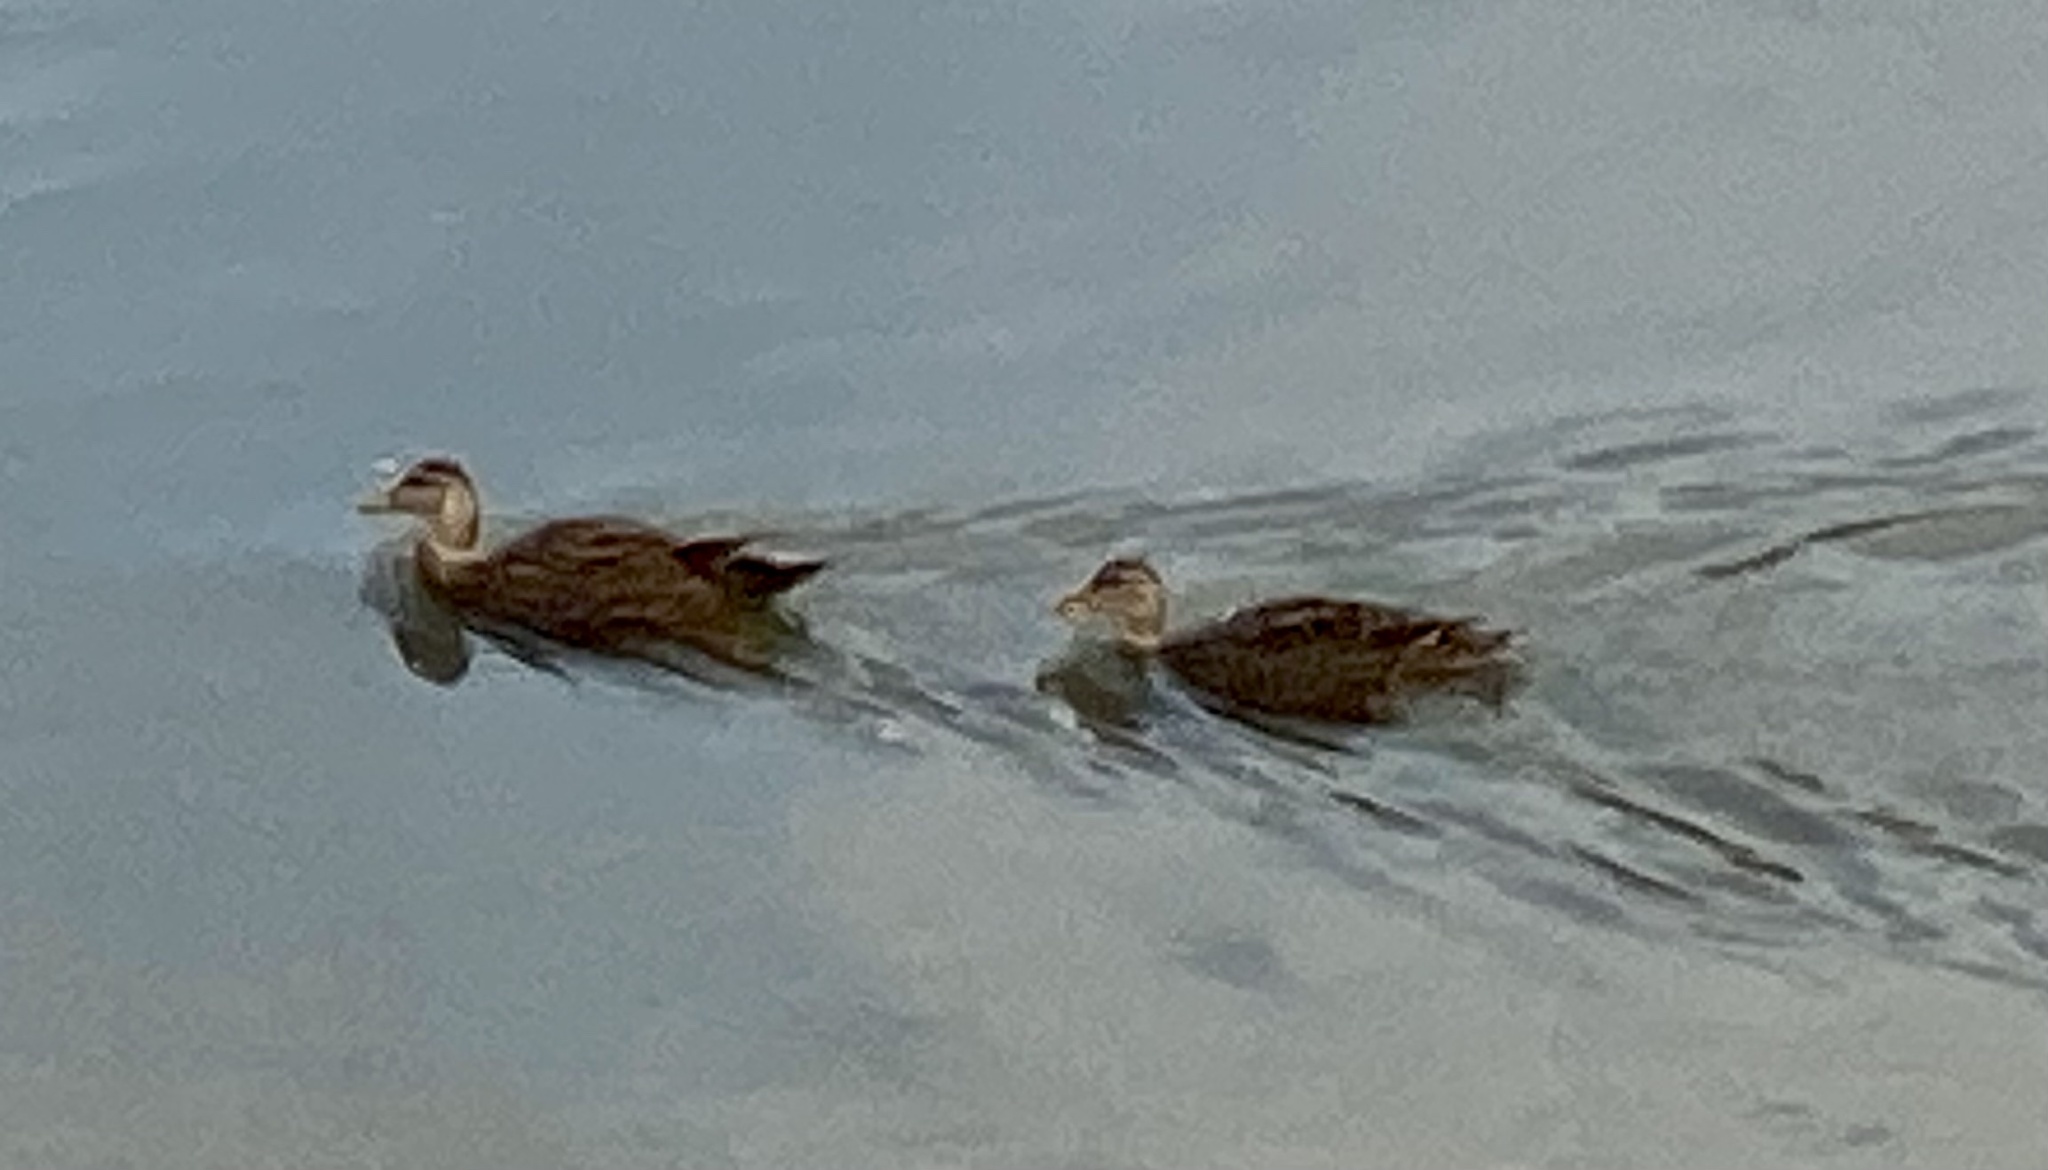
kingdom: Animalia
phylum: Chordata
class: Aves
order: Anseriformes
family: Anatidae
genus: Anas
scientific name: Anas fulvigula
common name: Mottled duck
